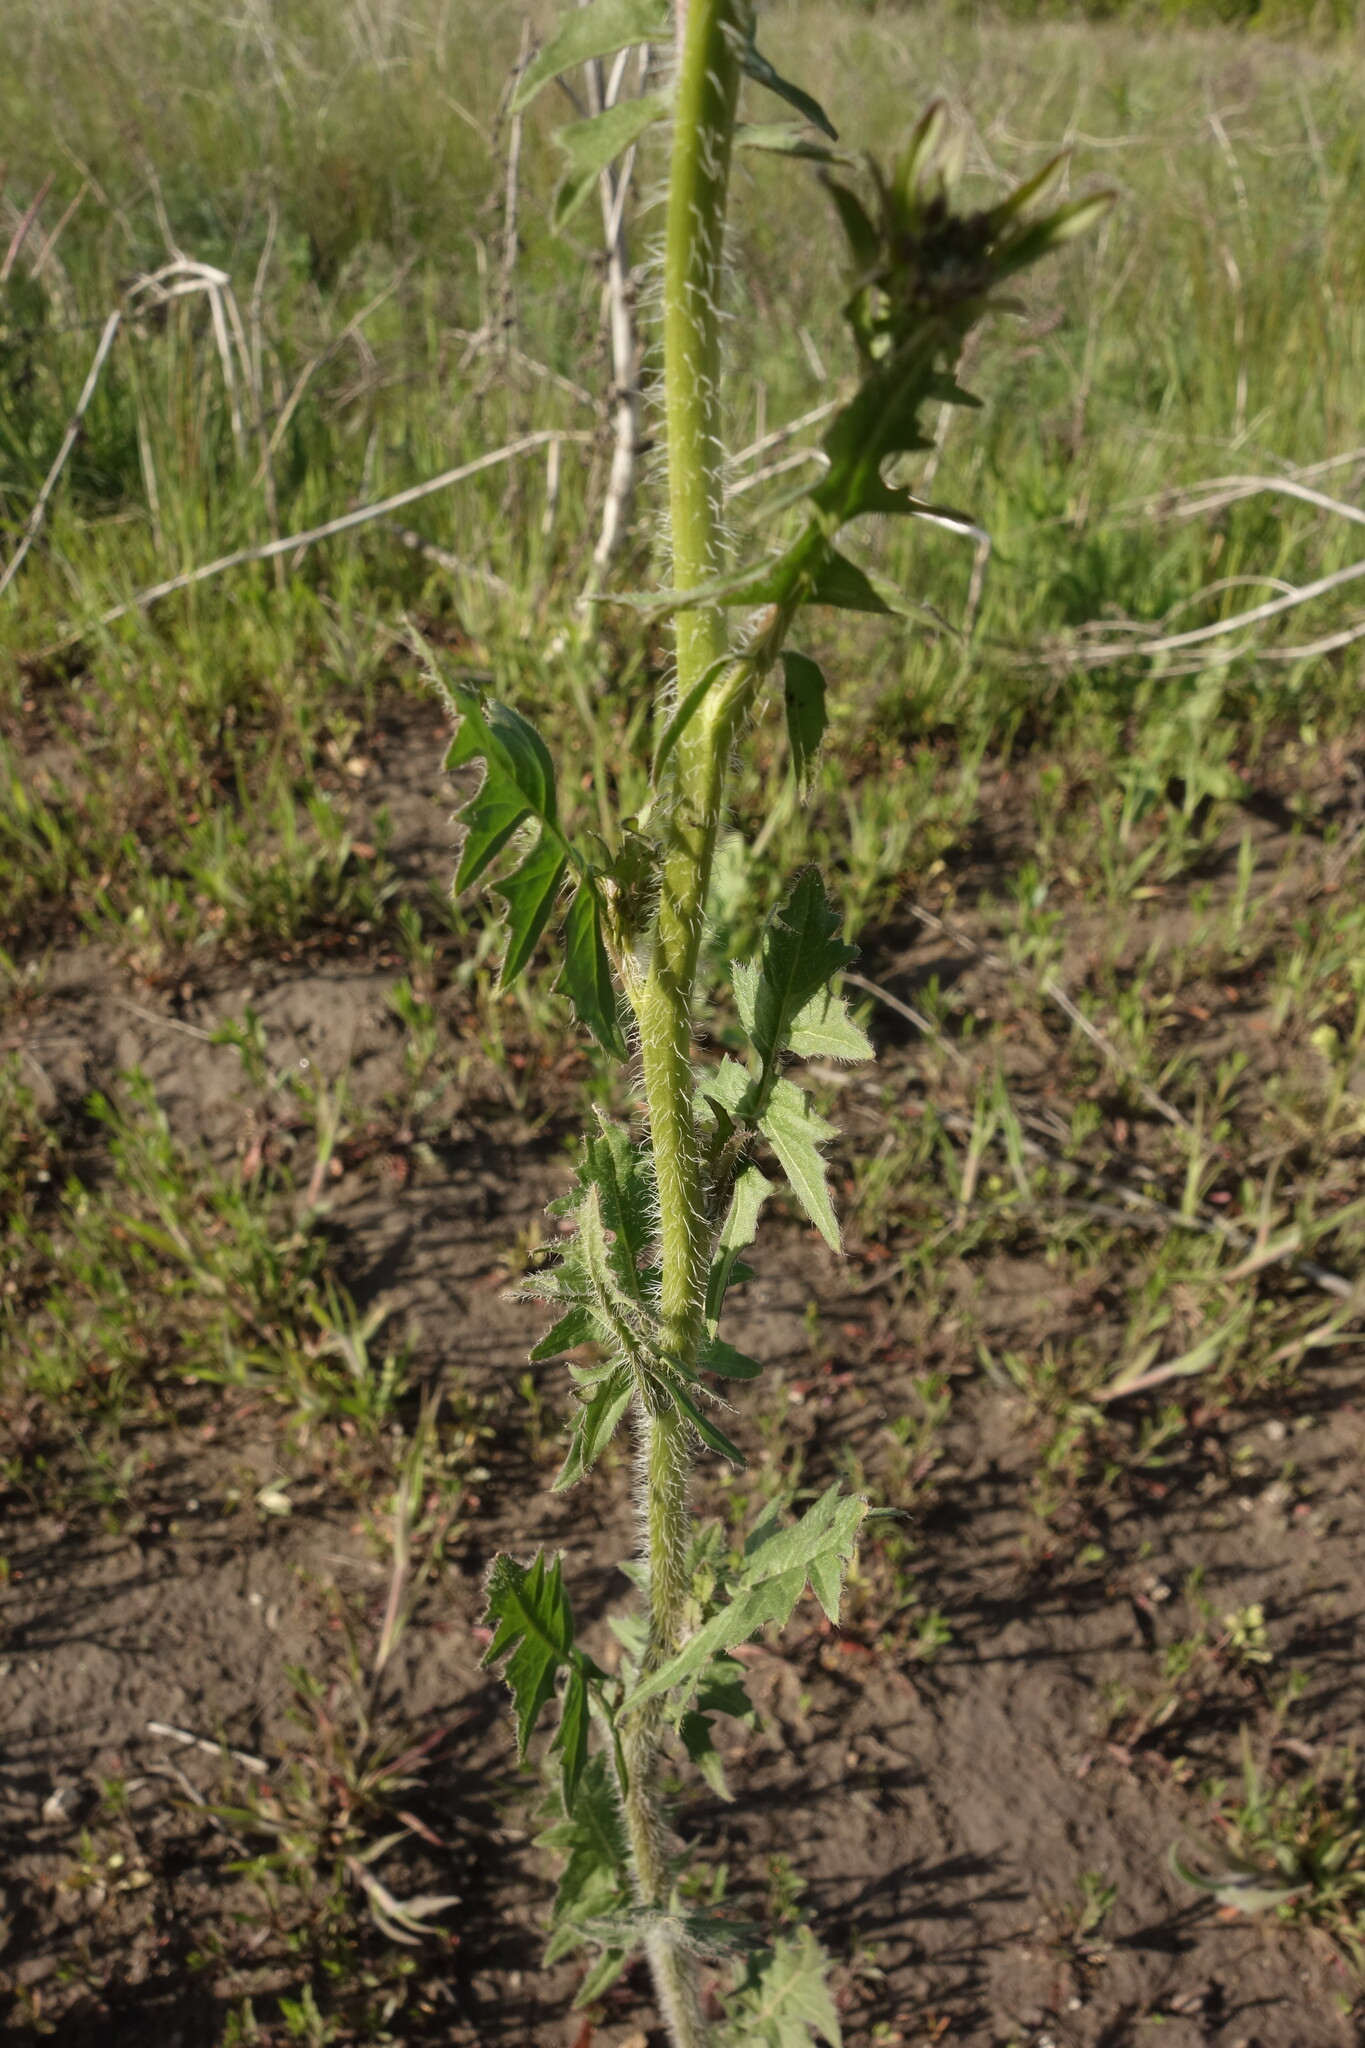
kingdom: Plantae
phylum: Tracheophyta
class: Magnoliopsida
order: Brassicales
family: Brassicaceae
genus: Sisymbrium
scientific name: Sisymbrium loeselii
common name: False london-rocket
